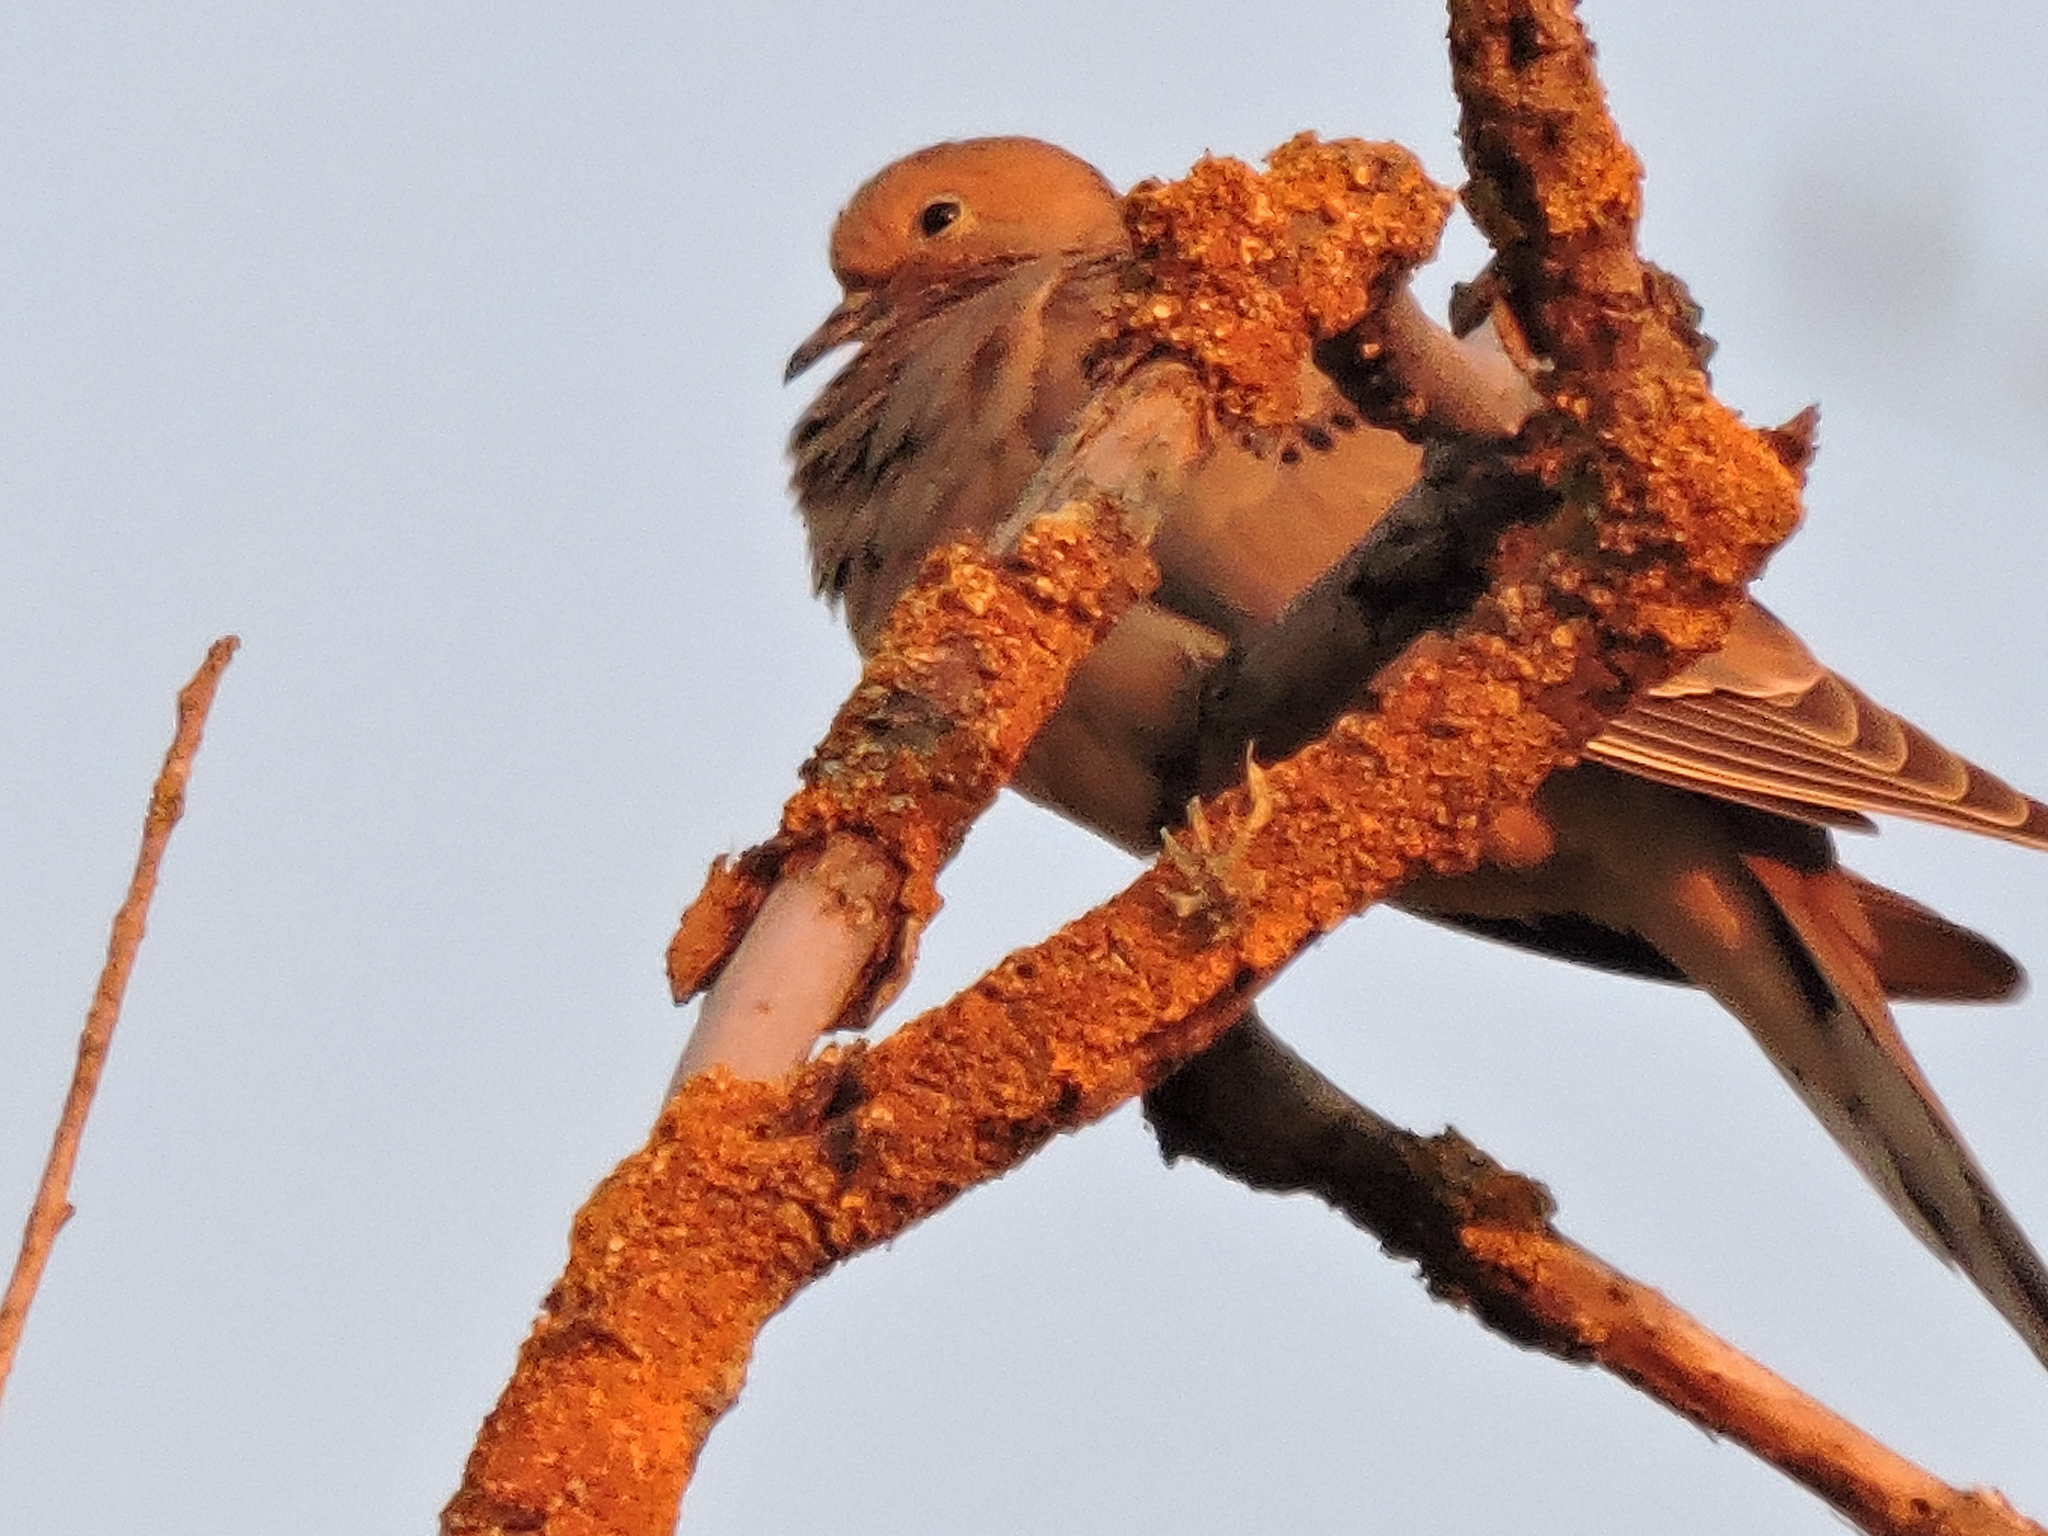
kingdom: Animalia
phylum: Chordata
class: Aves
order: Columbiformes
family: Columbidae
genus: Zenaida
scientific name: Zenaida macroura
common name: Mourning dove
